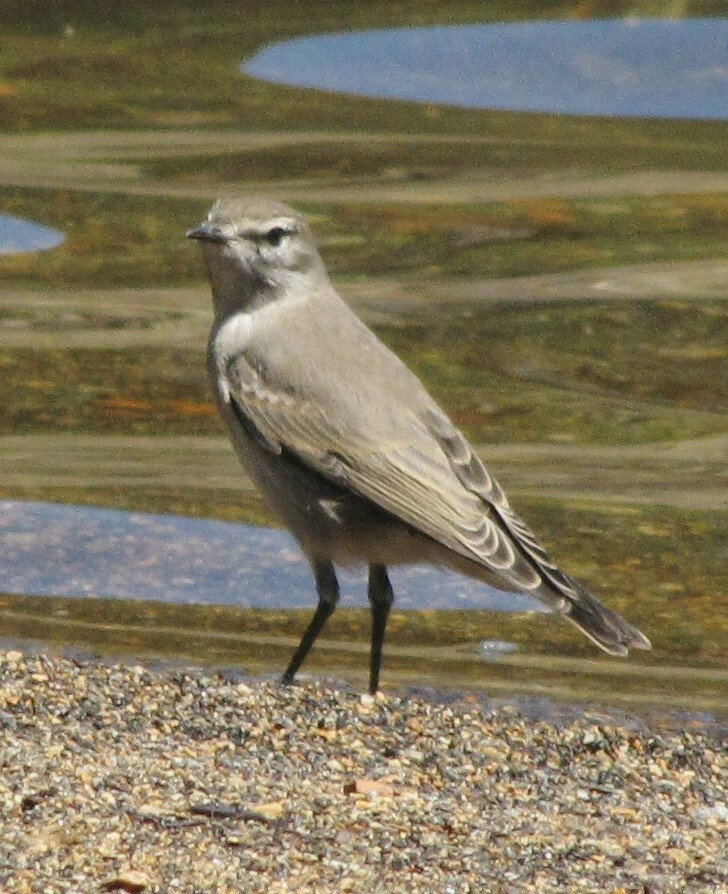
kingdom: Animalia
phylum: Chordata
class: Aves
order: Passeriformes
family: Tyrannidae
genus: Muscisaxicola
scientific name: Muscisaxicola cinereus
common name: Cinereous ground tyrant
